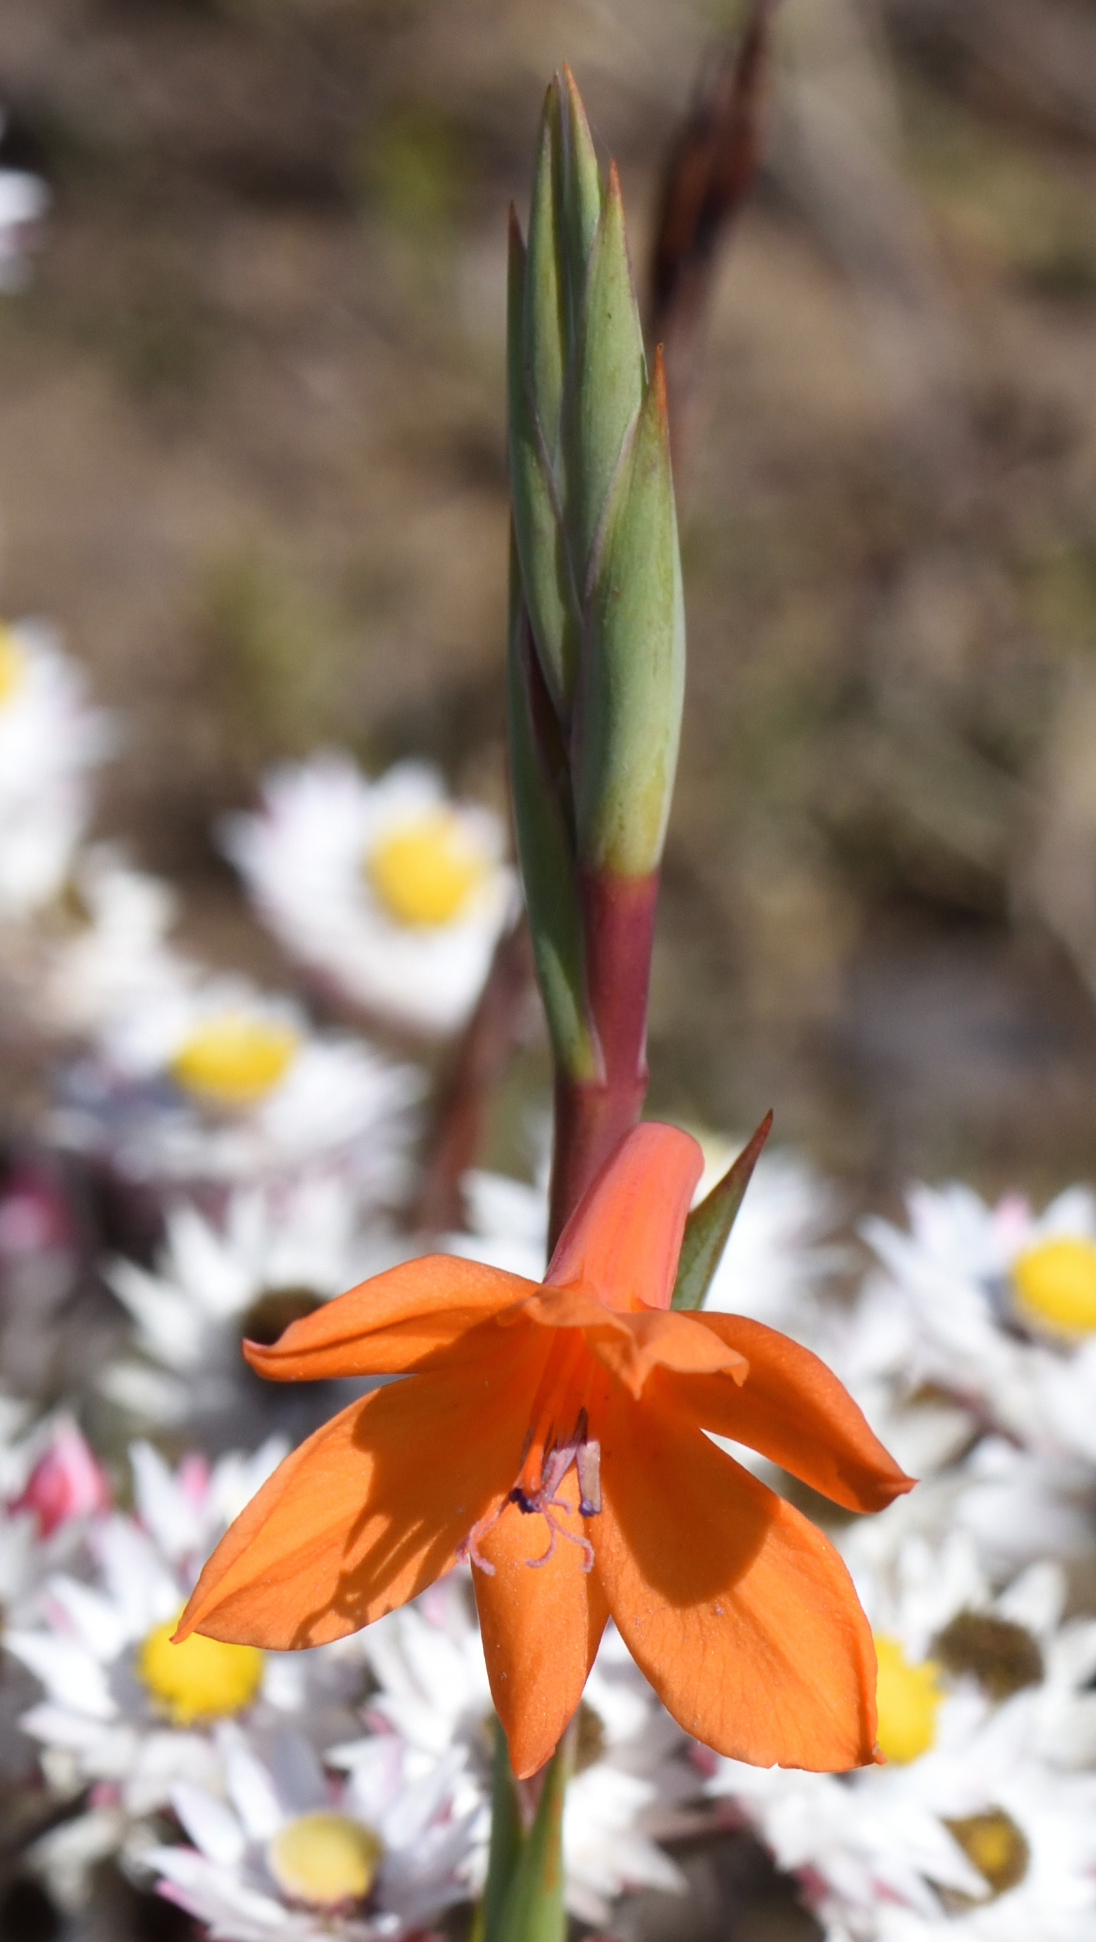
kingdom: Plantae
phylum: Tracheophyta
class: Liliopsida
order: Asparagales
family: Iridaceae
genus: Watsonia
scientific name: Watsonia pillansii
